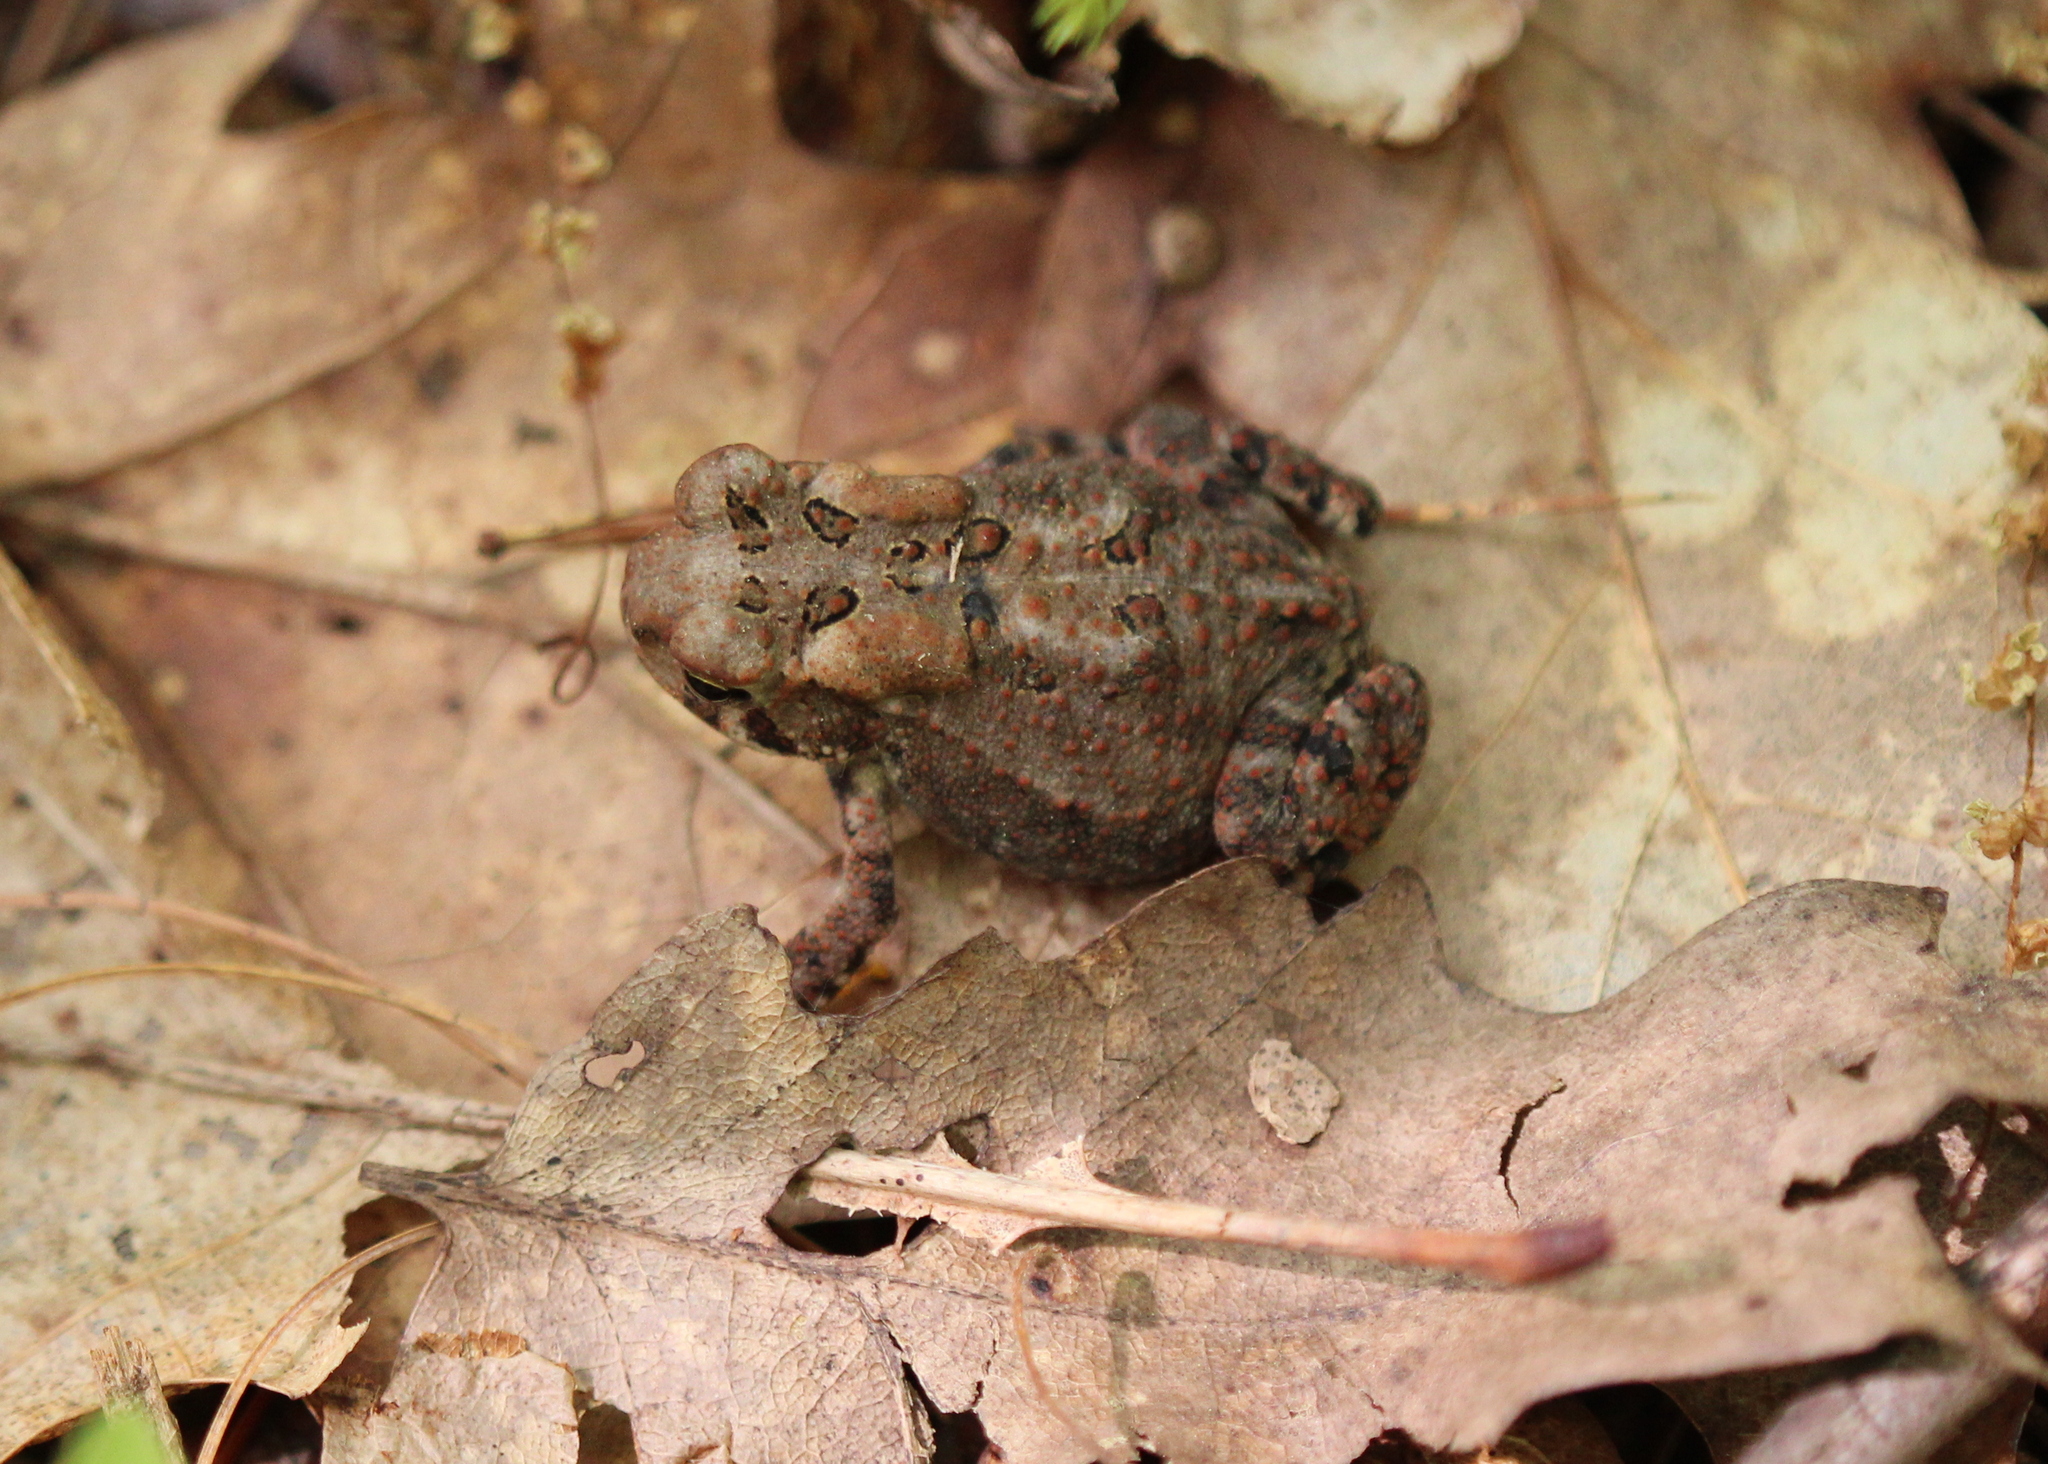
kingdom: Animalia
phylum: Chordata
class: Amphibia
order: Anura
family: Bufonidae
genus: Anaxyrus
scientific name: Anaxyrus americanus
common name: American toad
